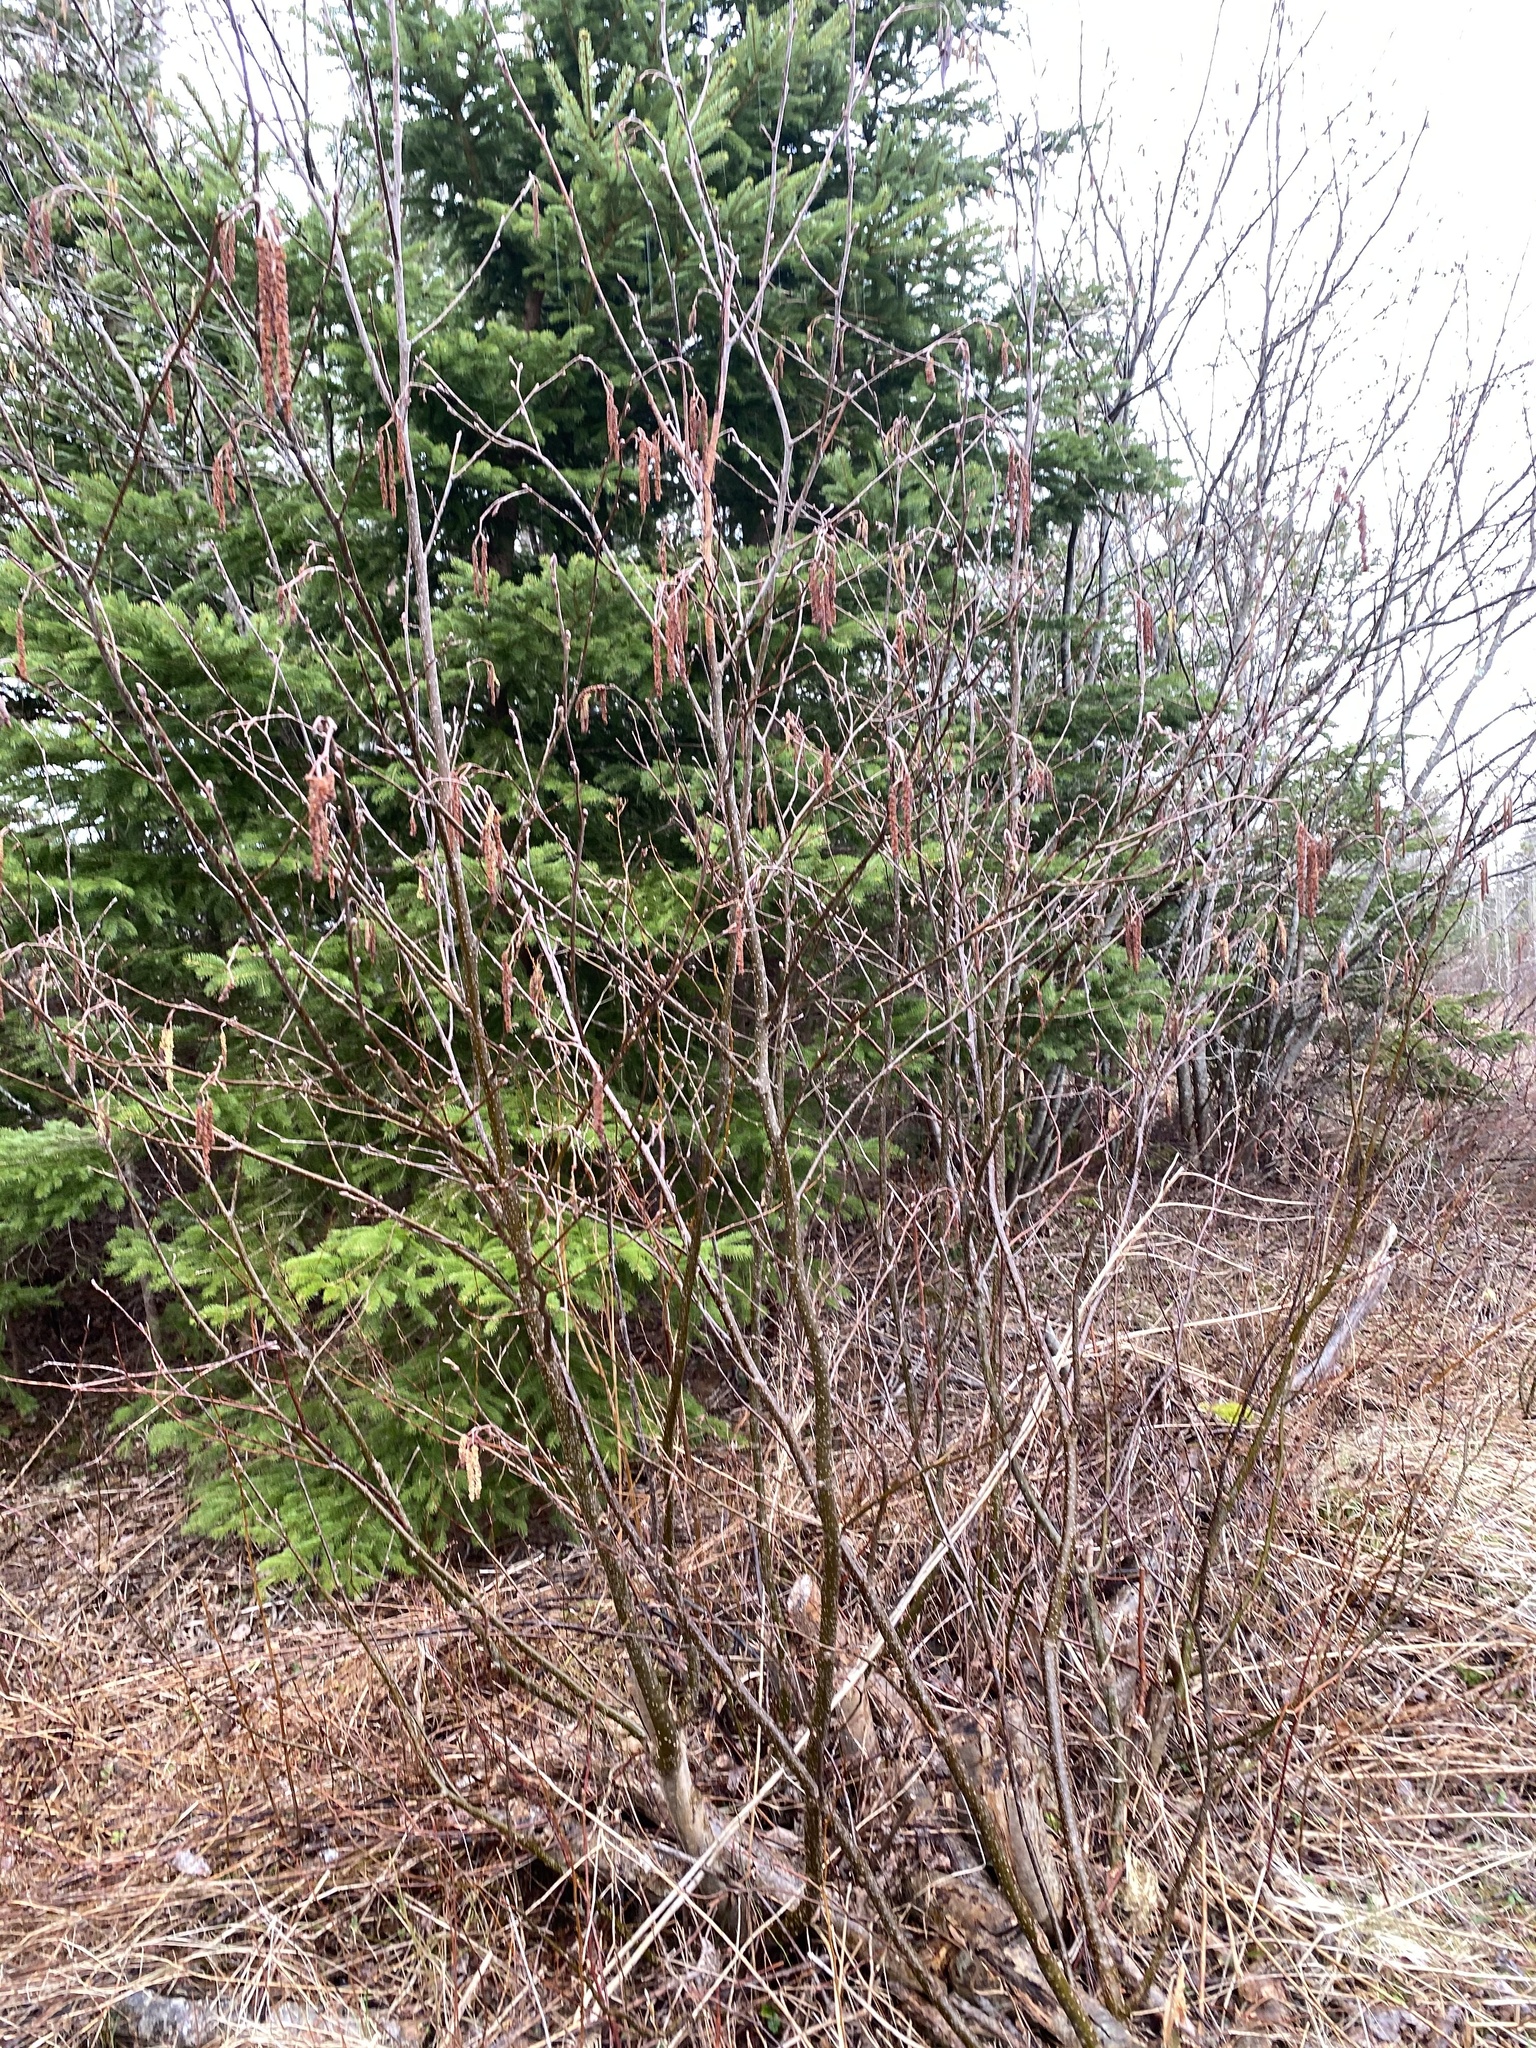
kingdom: Plantae
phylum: Tracheophyta
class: Magnoliopsida
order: Fagales
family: Betulaceae
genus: Alnus
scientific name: Alnus incana
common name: Grey alder
